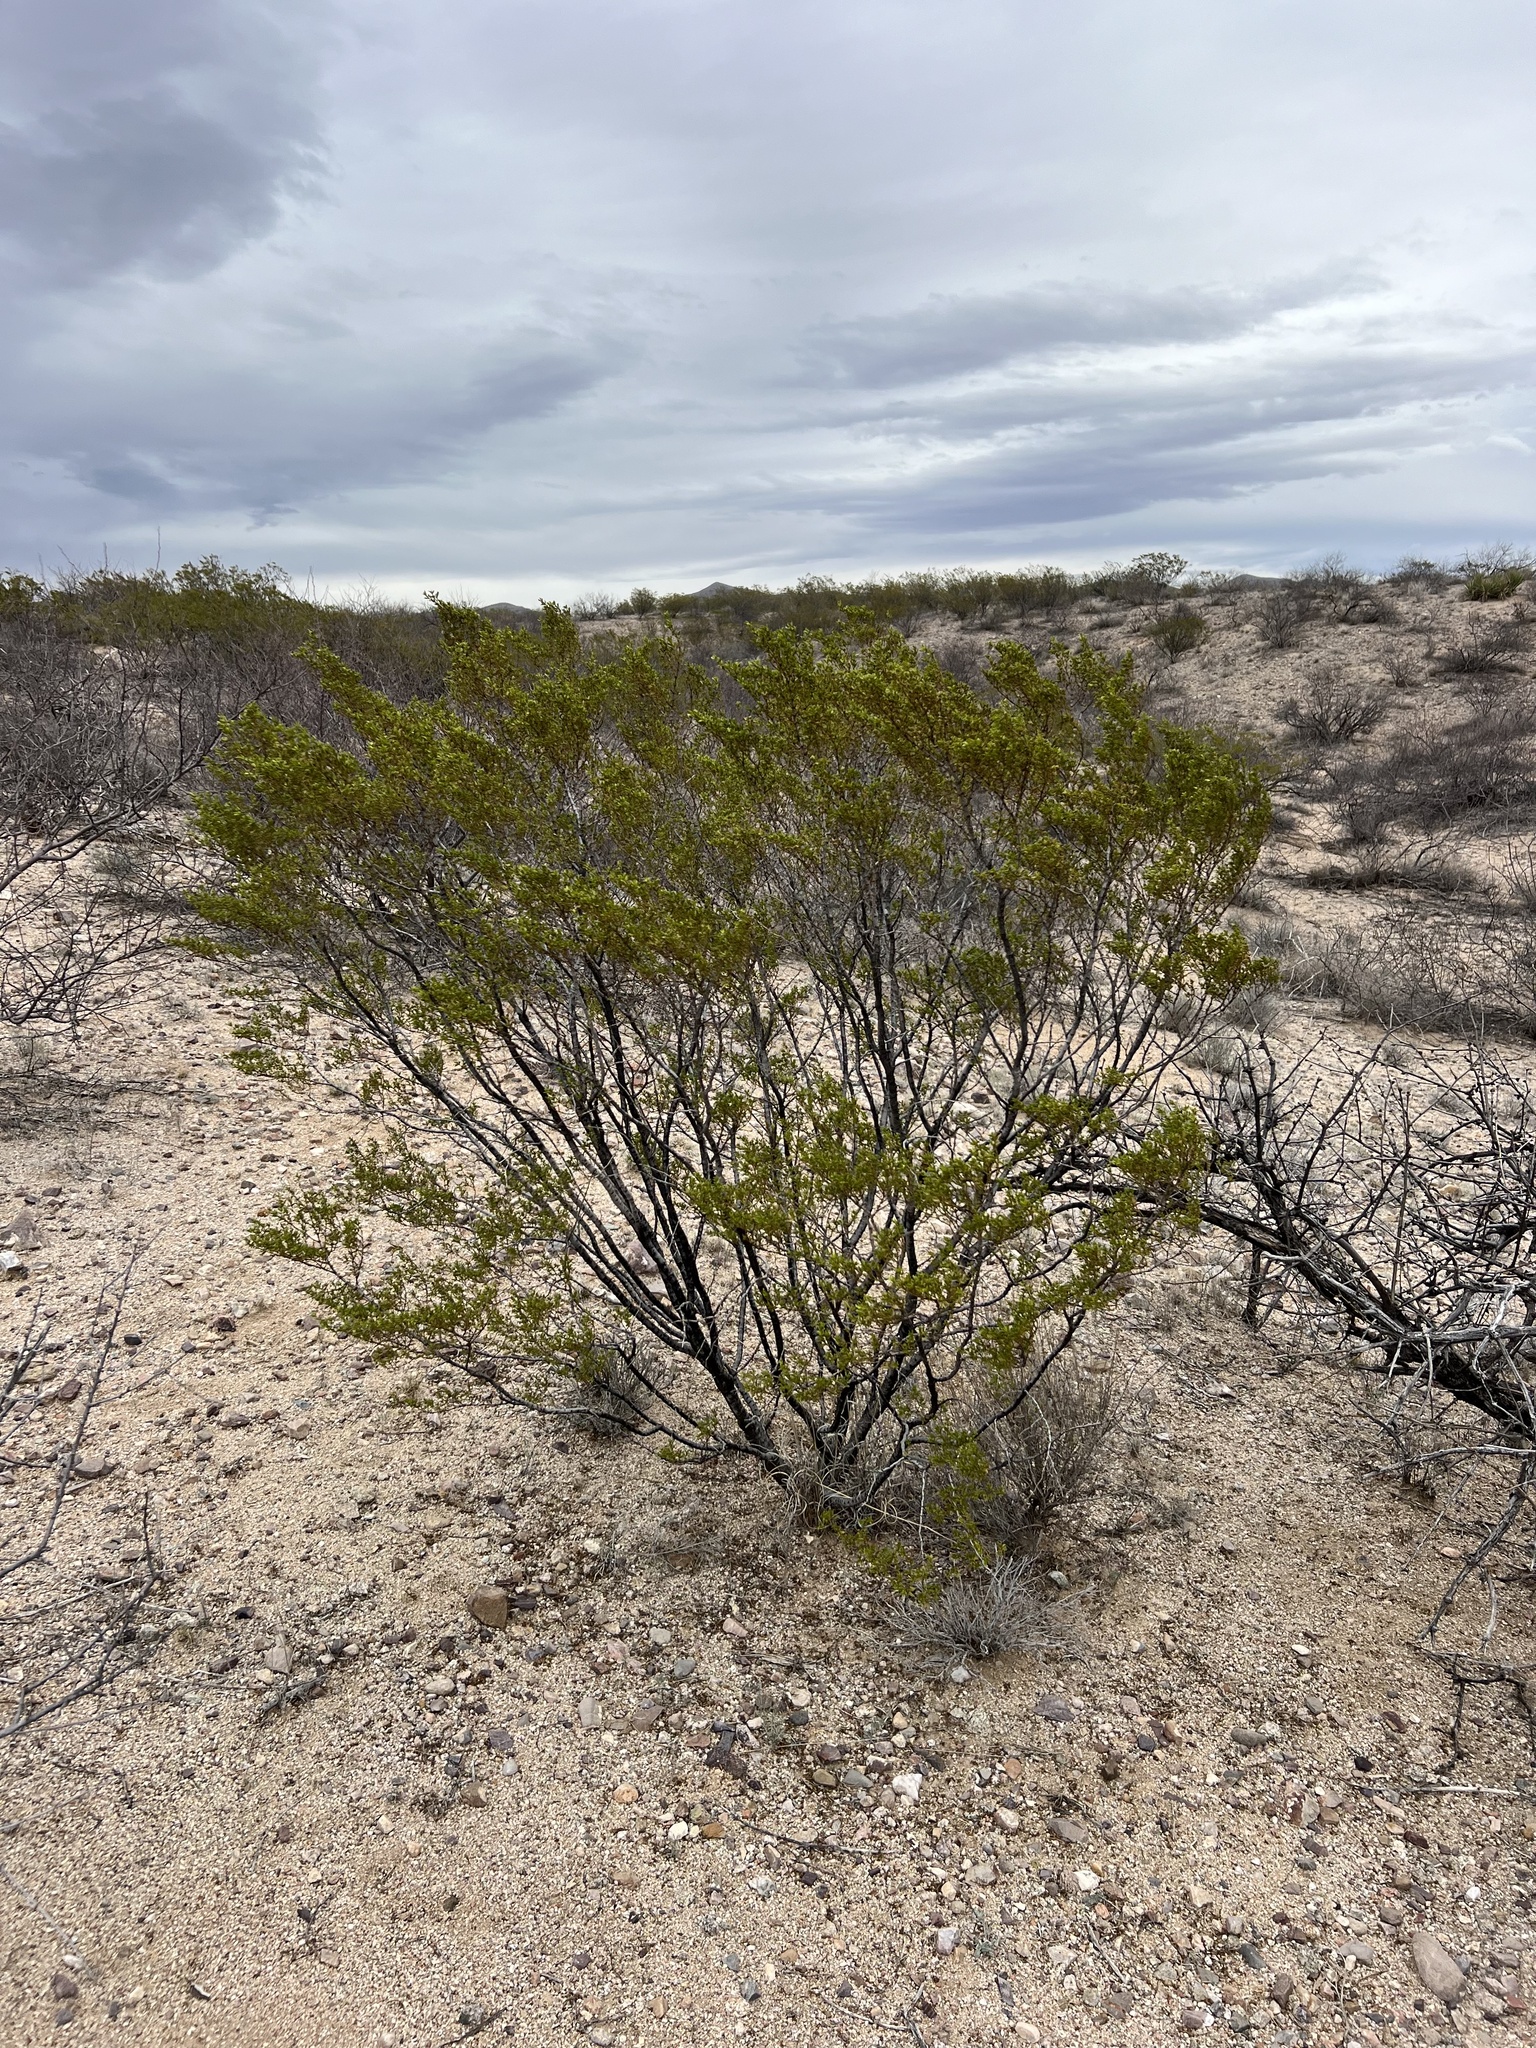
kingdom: Plantae
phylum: Tracheophyta
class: Magnoliopsida
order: Zygophyllales
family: Zygophyllaceae
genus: Larrea
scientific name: Larrea tridentata
